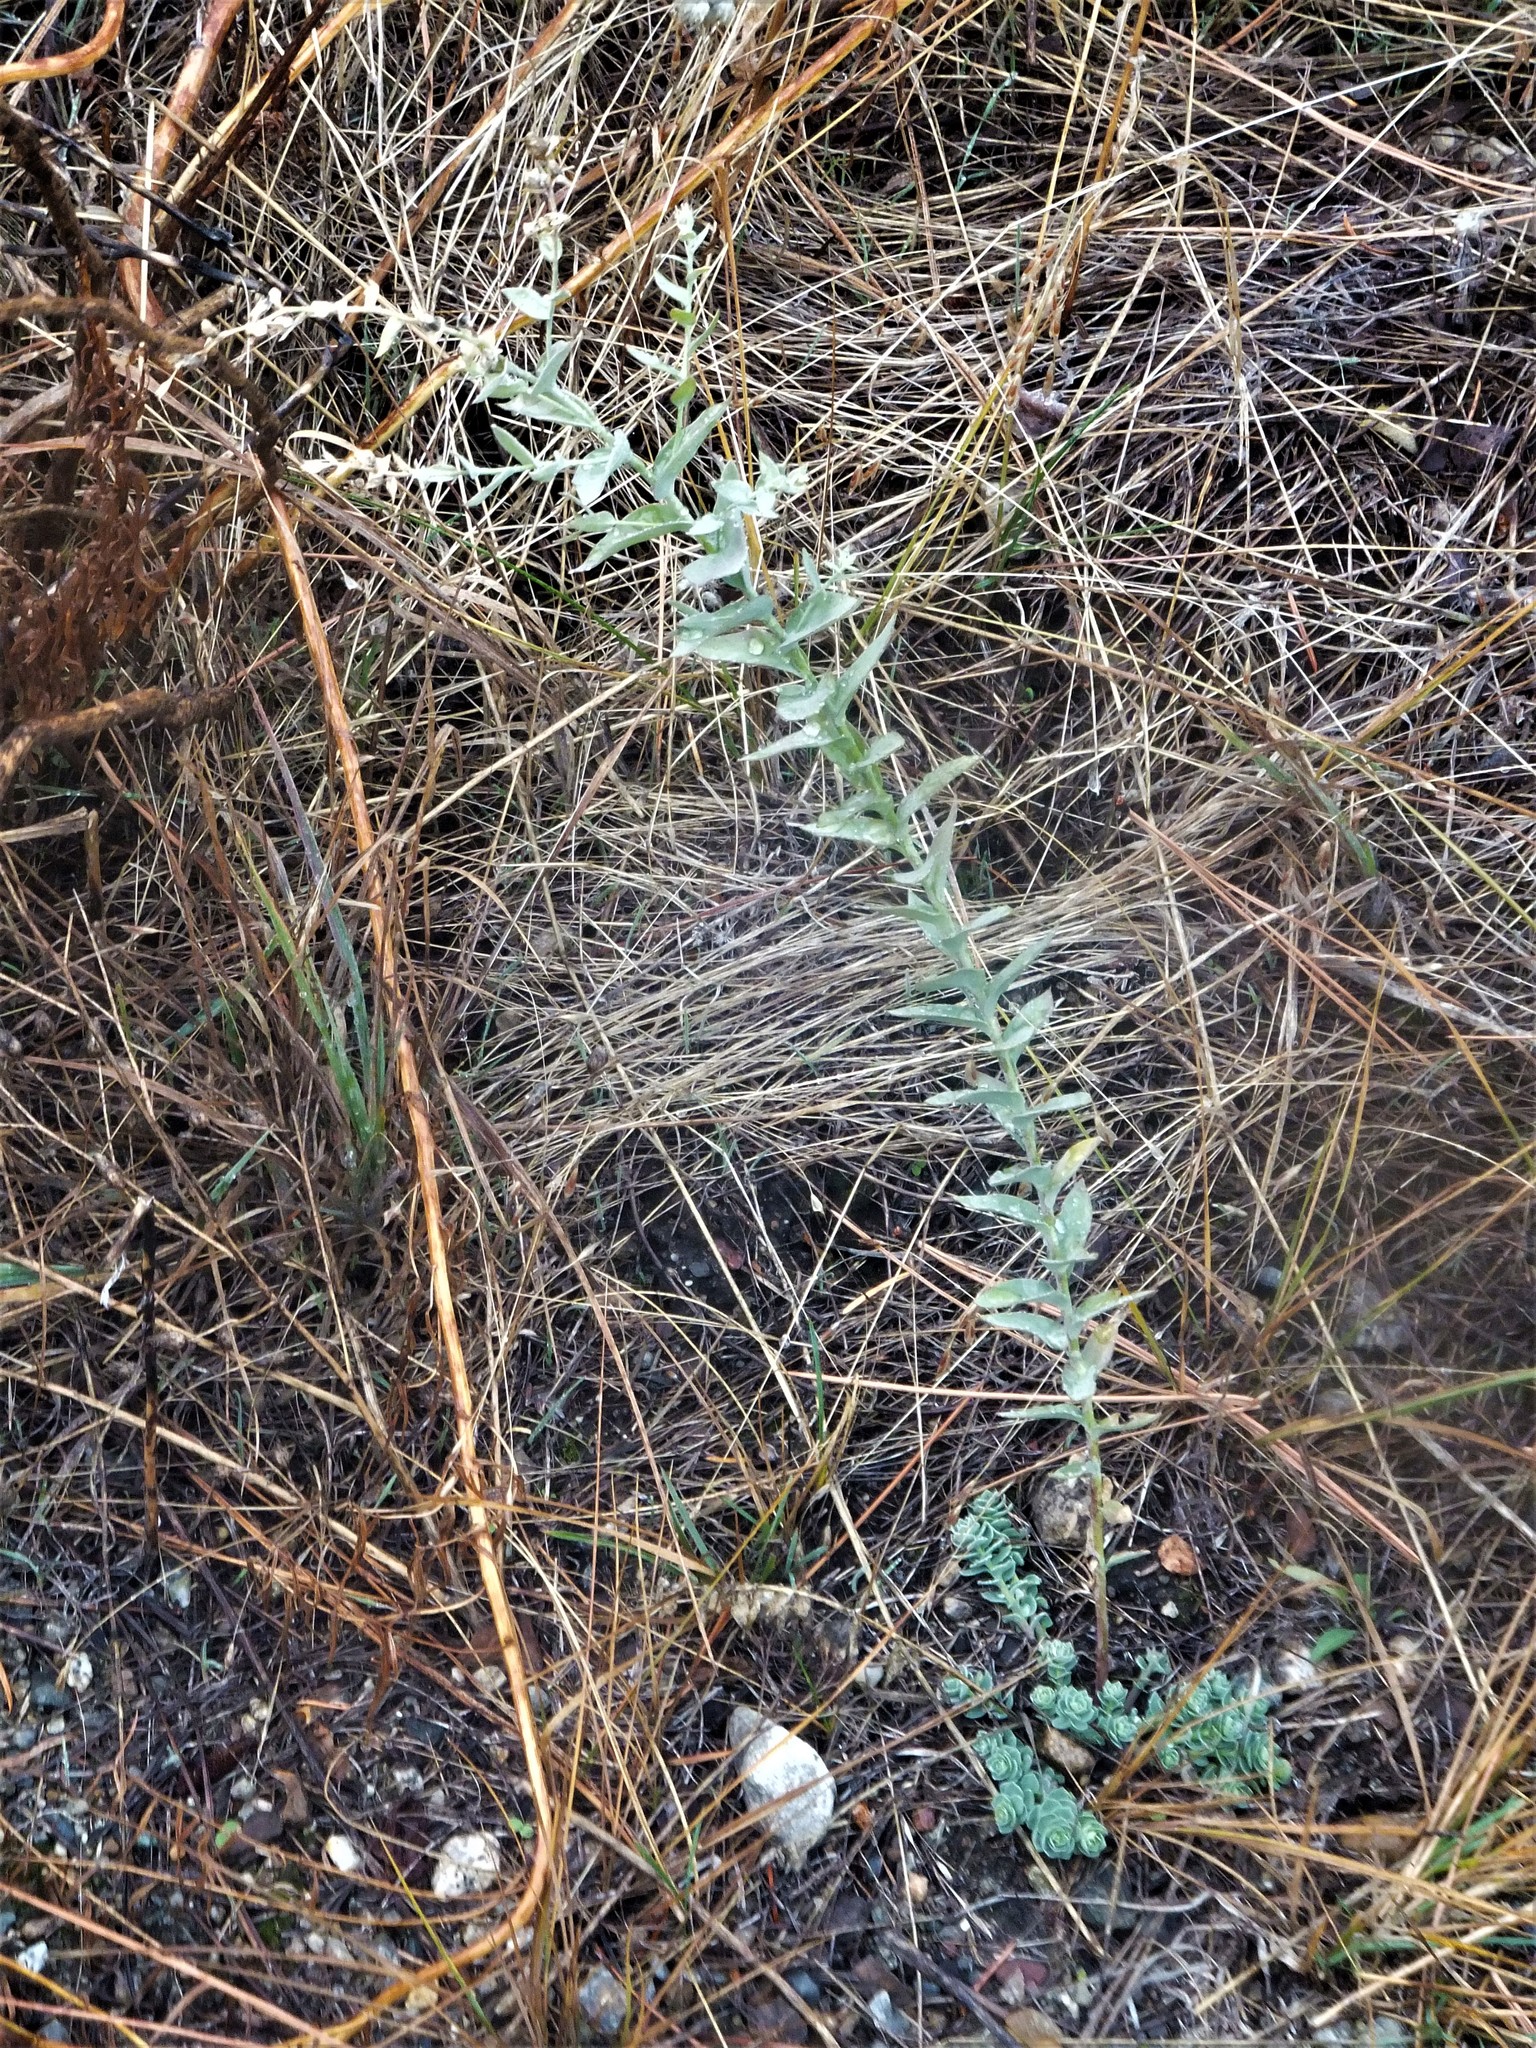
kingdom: Plantae
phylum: Tracheophyta
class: Magnoliopsida
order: Lamiales
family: Plantaginaceae
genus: Linaria
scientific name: Linaria dalmatica
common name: Dalmatian toadflax
